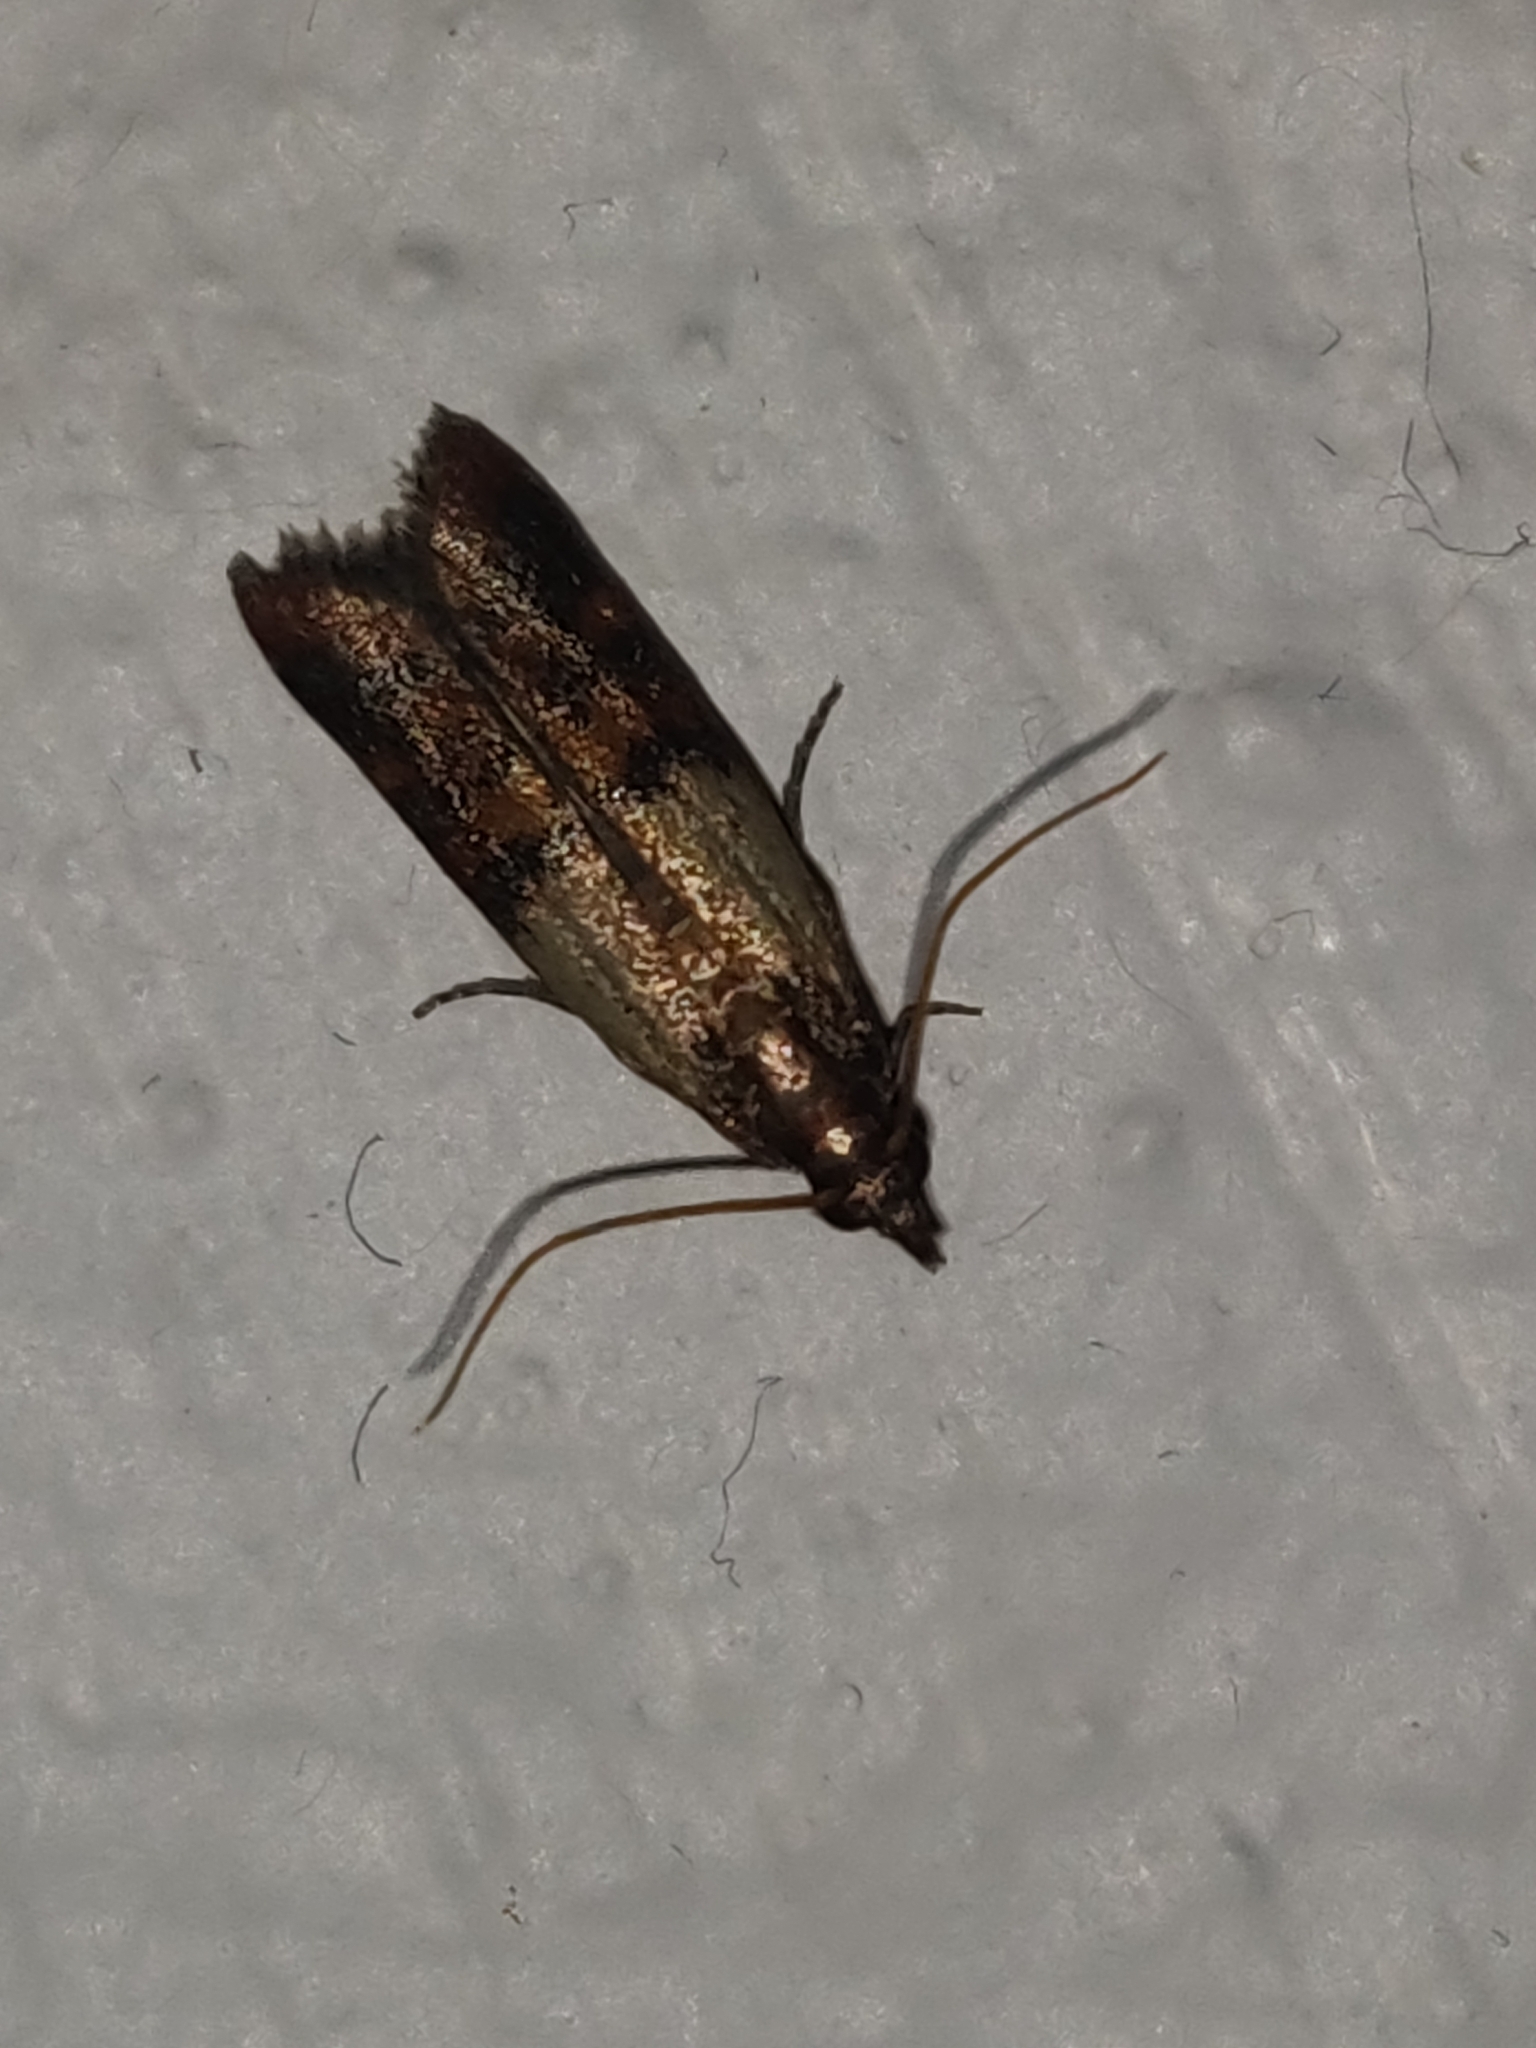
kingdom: Animalia
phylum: Arthropoda
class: Insecta
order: Lepidoptera
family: Pyralidae
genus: Plodia
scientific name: Plodia interpunctella
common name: Indian meal moth
